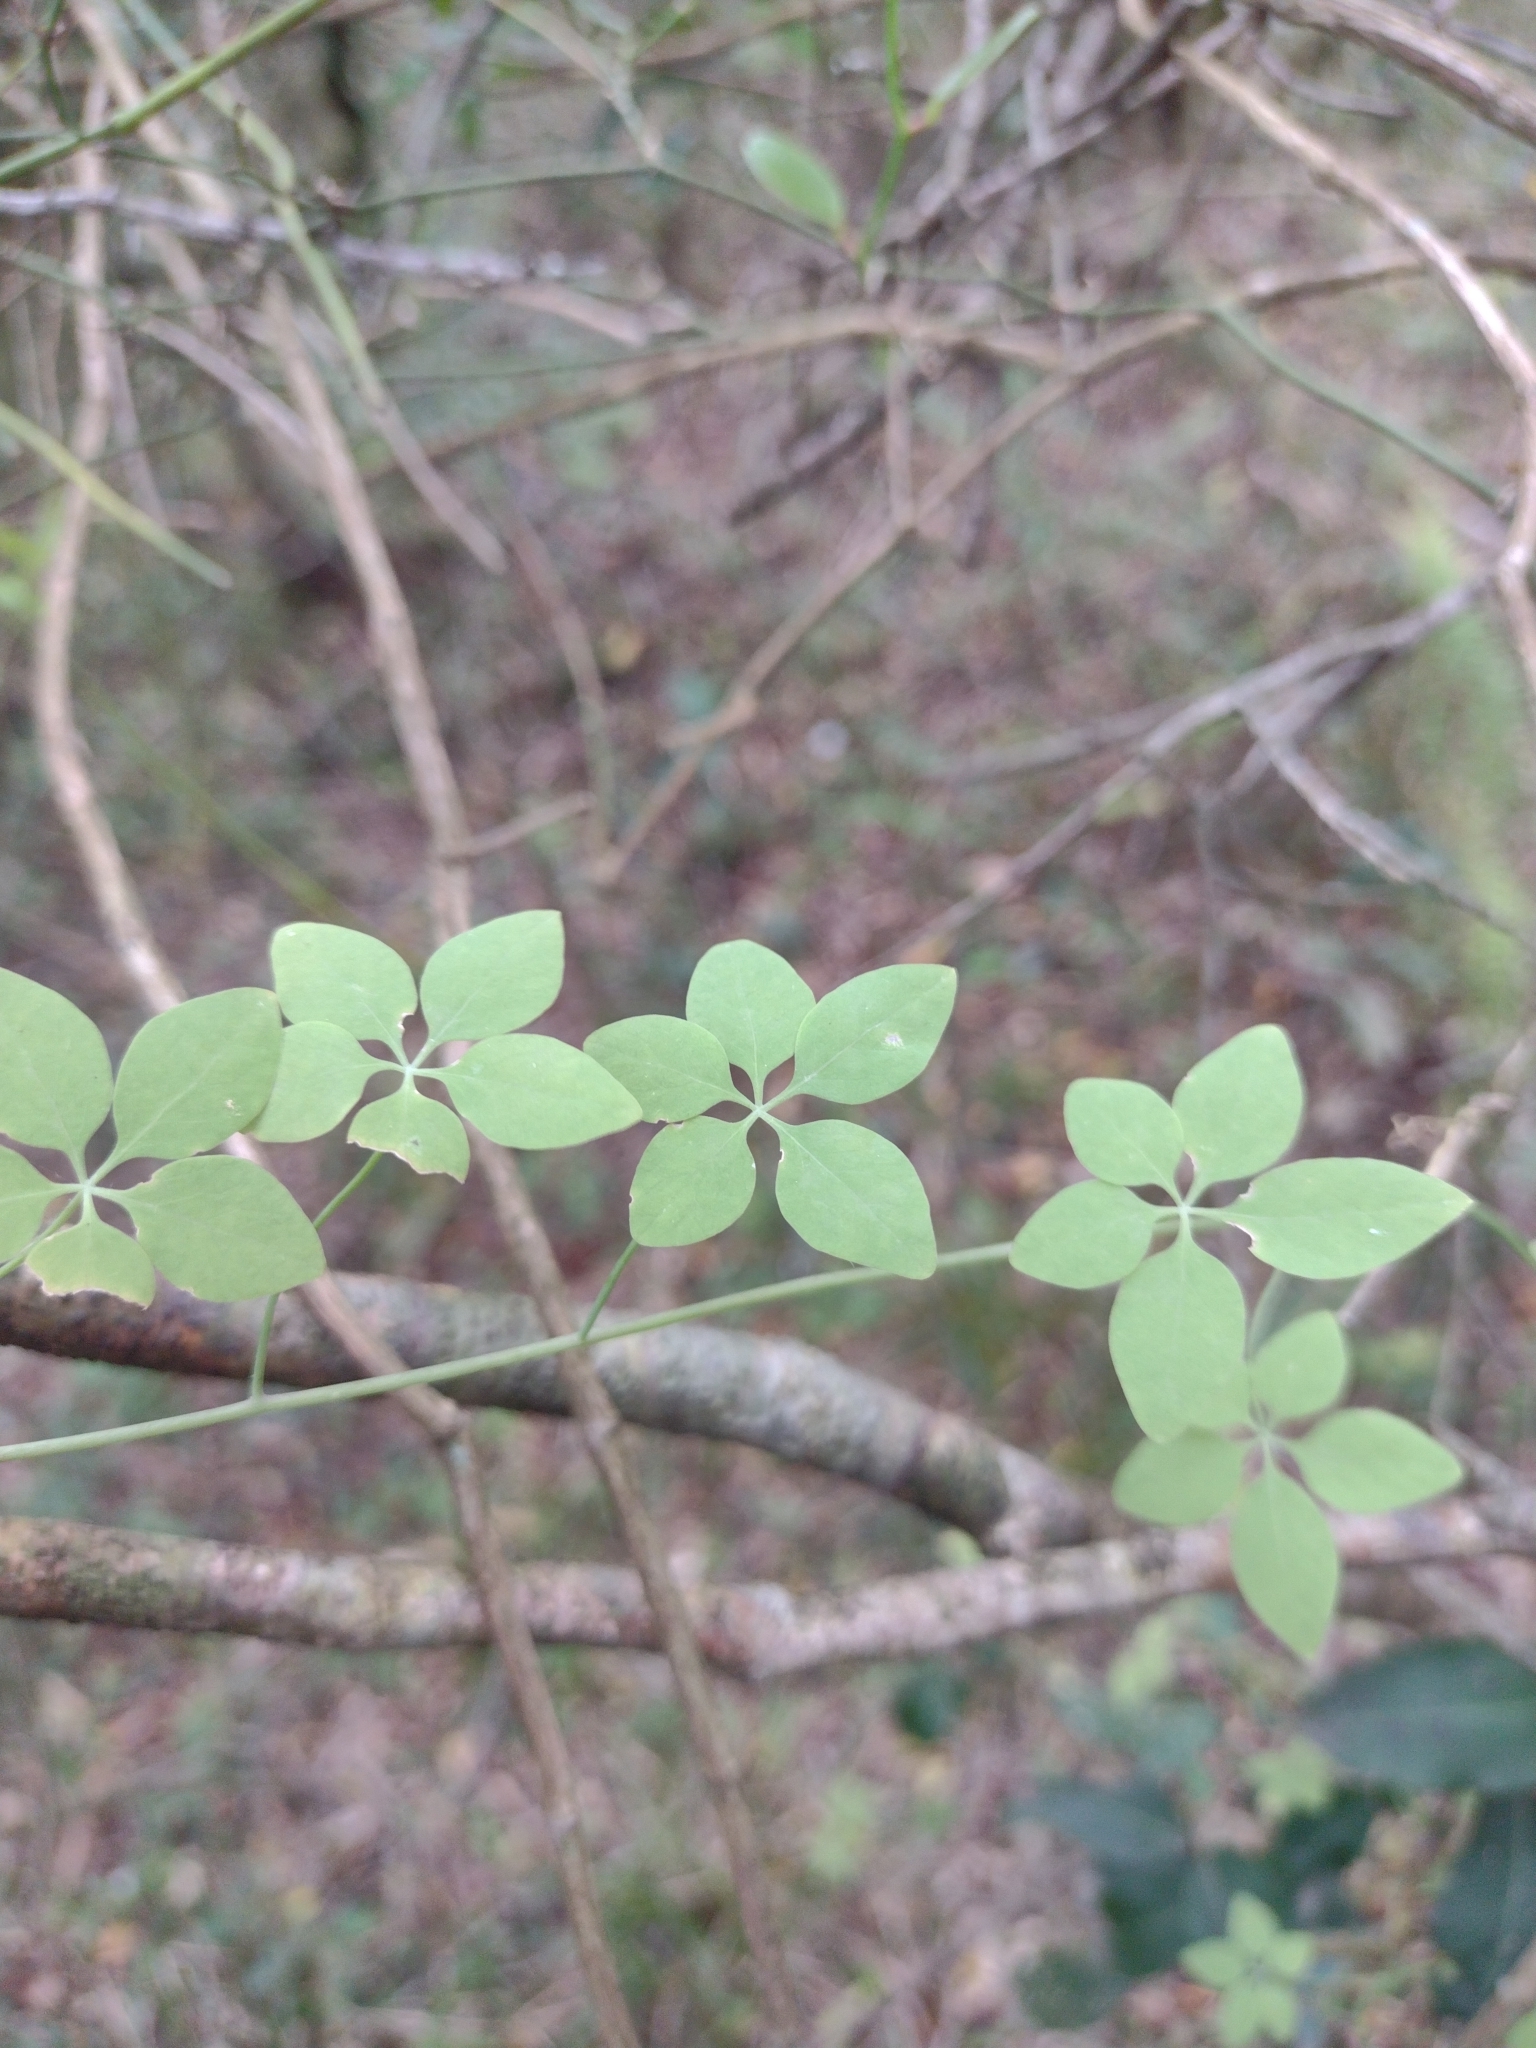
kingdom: Plantae
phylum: Tracheophyta
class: Magnoliopsida
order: Brassicales
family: Tropaeolaceae
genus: Tropaeolum
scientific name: Tropaeolum pentaphyllum
